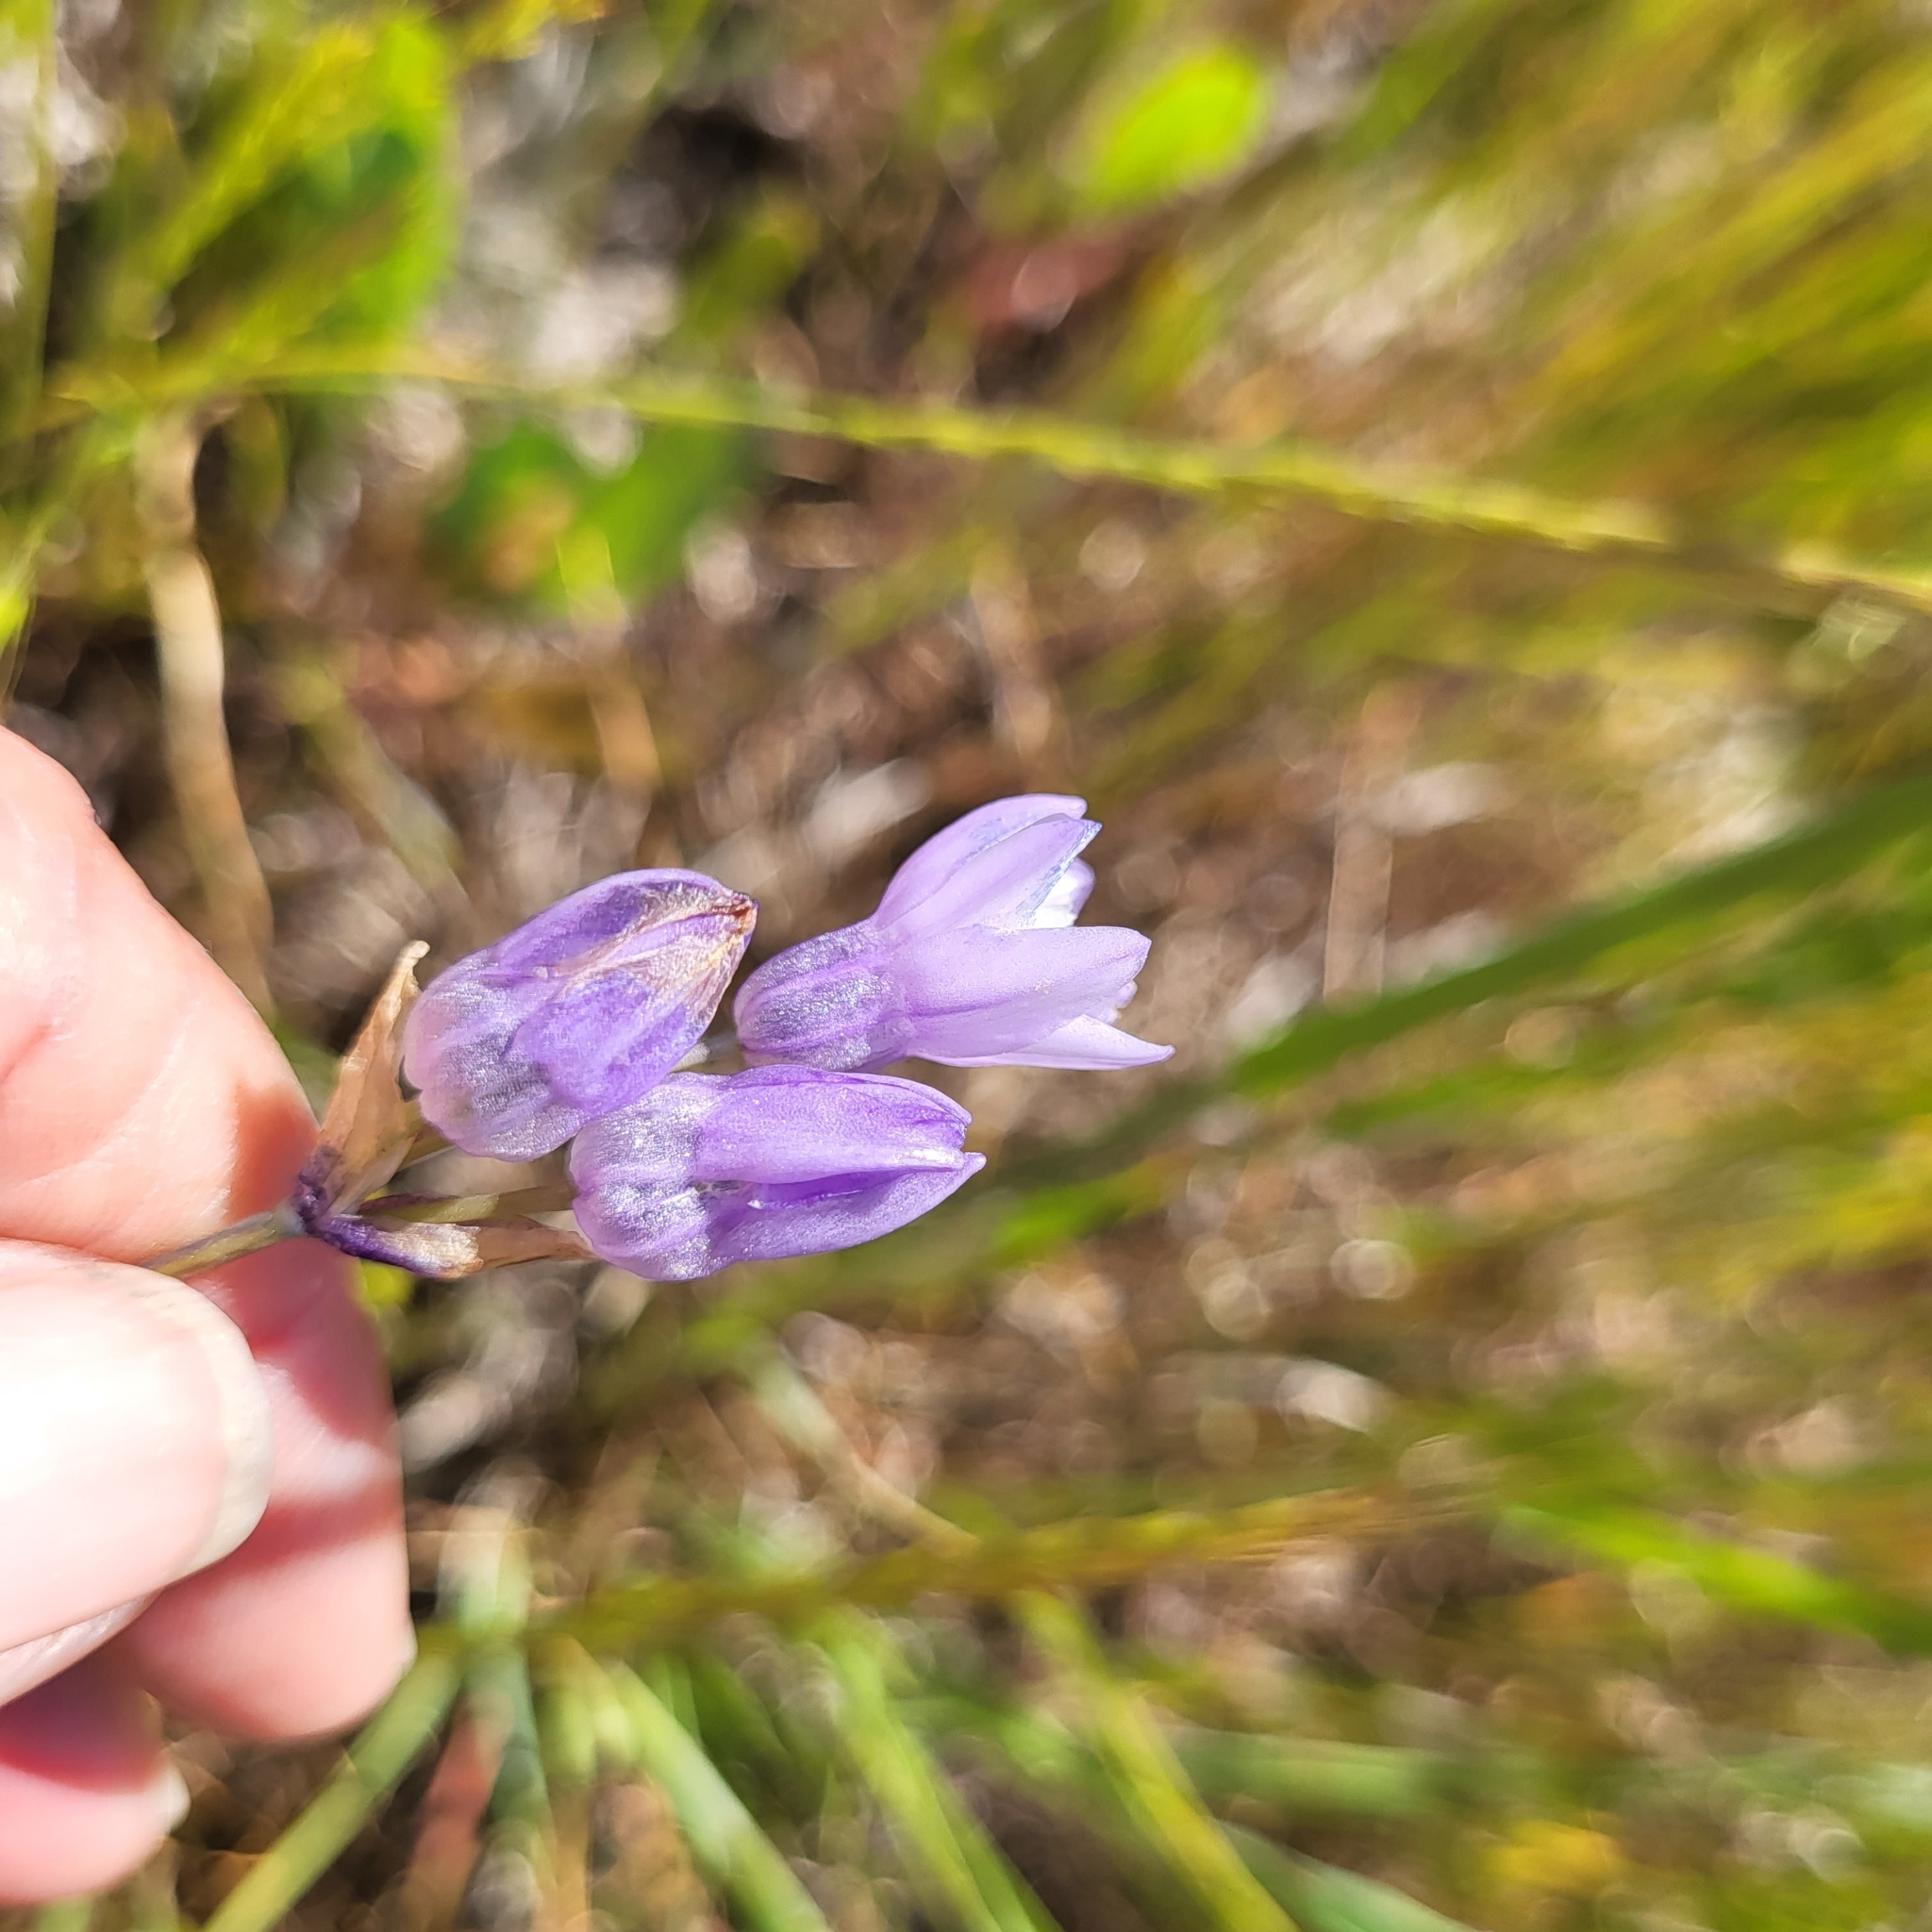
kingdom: Plantae
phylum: Tracheophyta
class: Liliopsida
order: Asparagales
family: Asparagaceae
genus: Dipterostemon
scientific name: Dipterostemon capitatus
